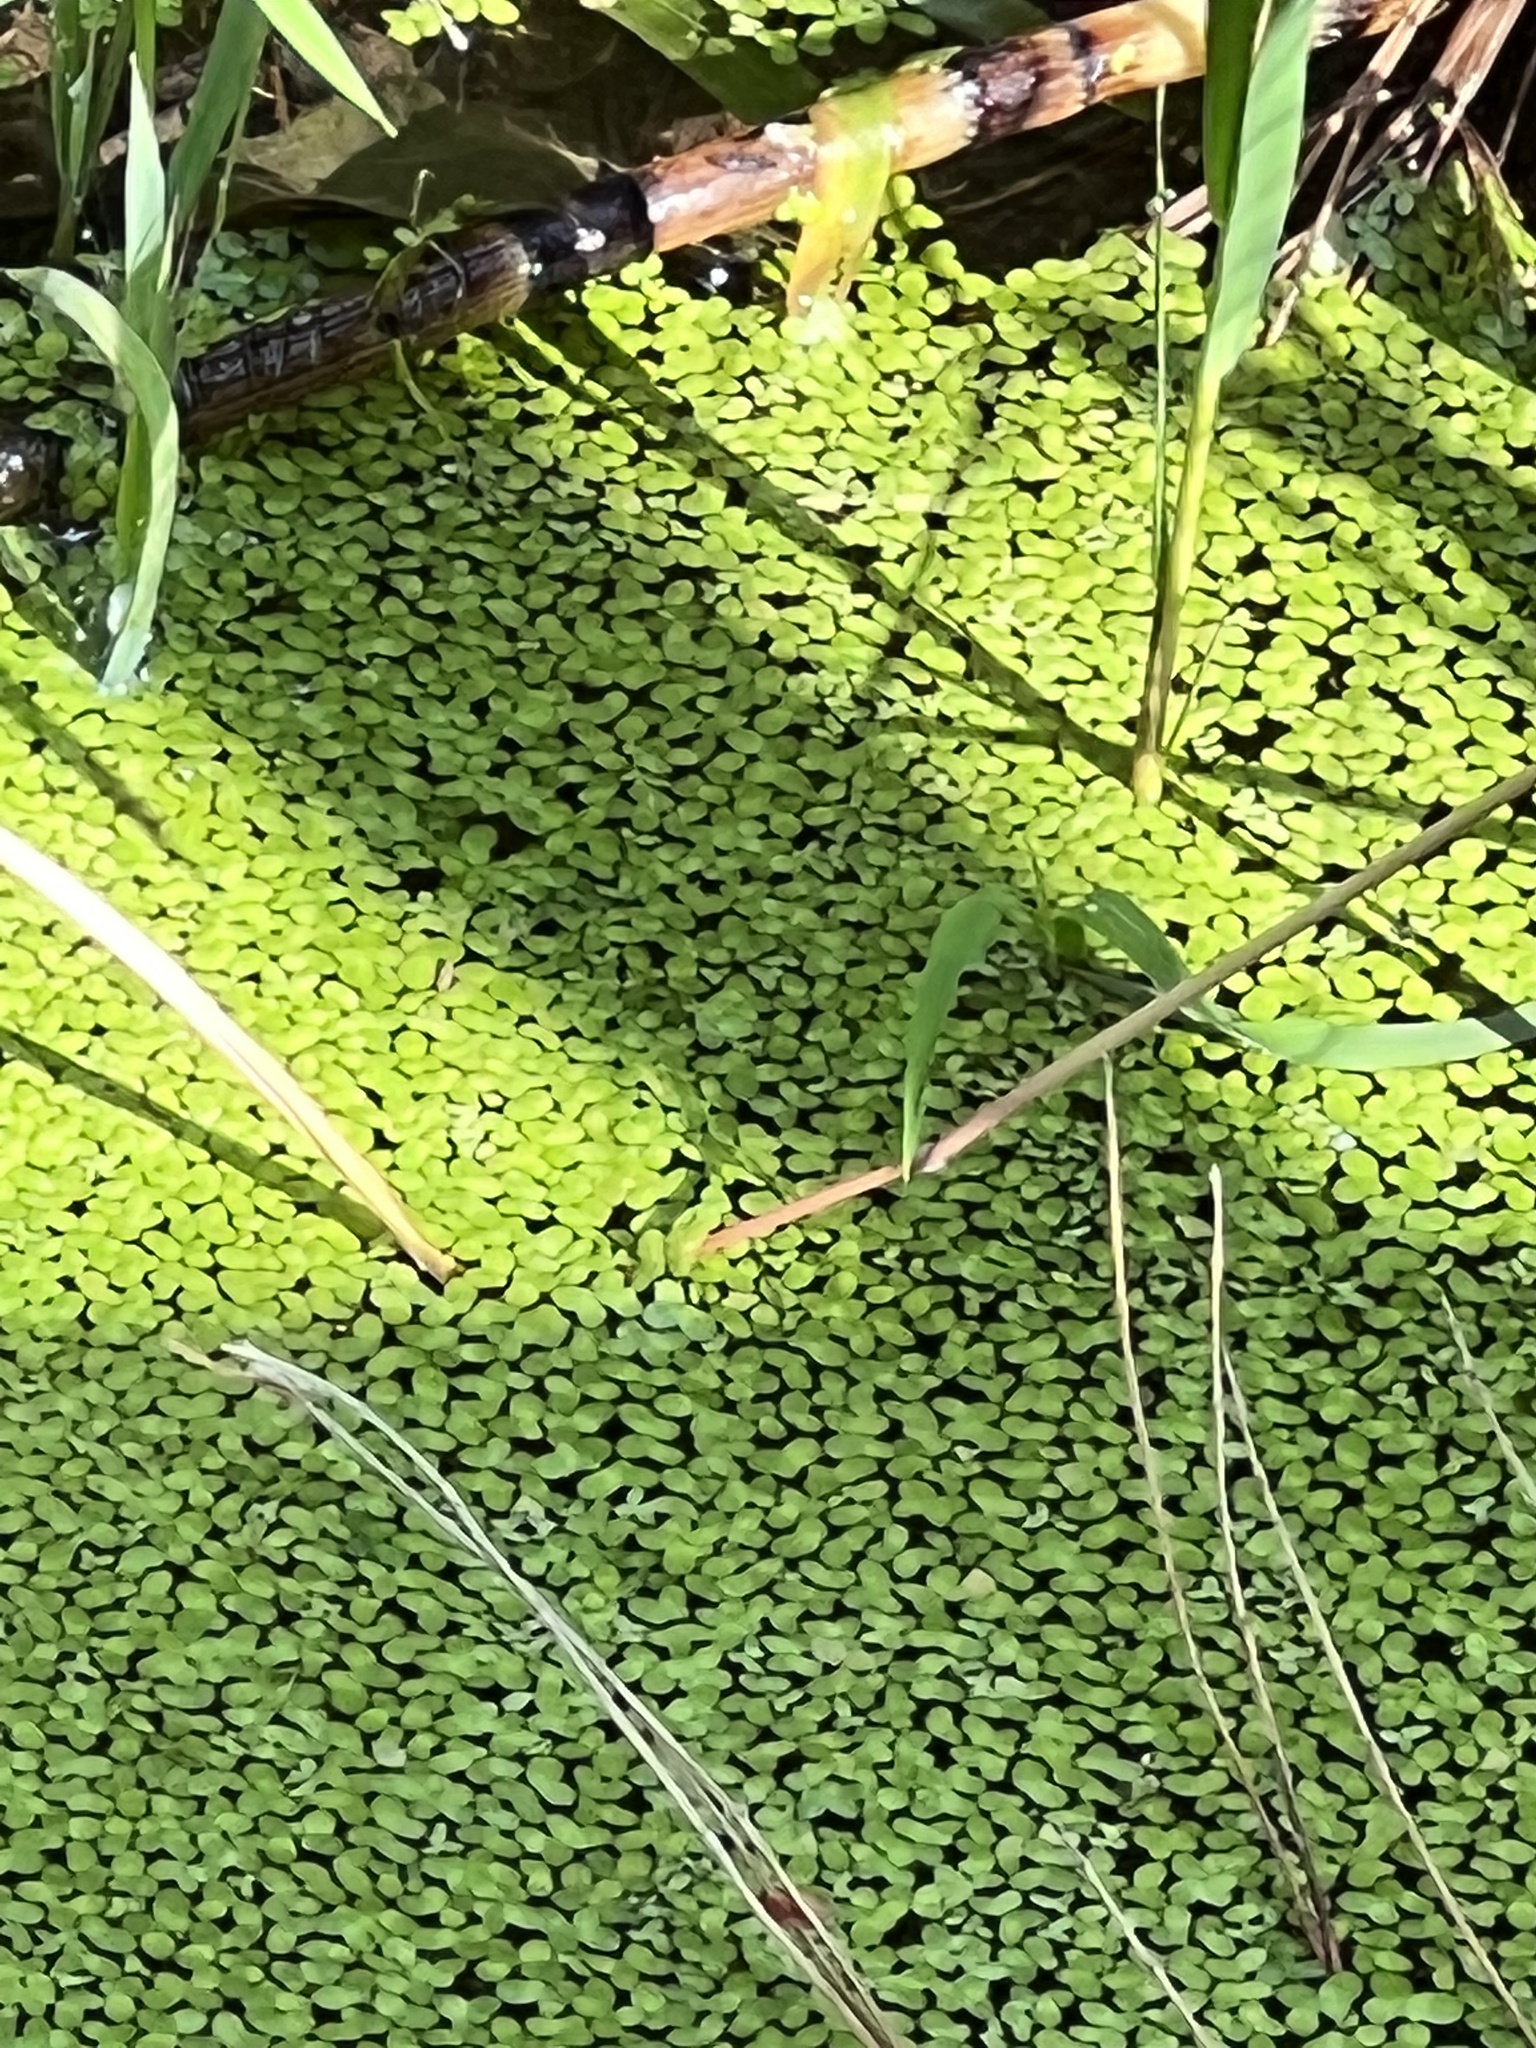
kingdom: Plantae
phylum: Tracheophyta
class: Liliopsida
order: Alismatales
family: Araceae
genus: Lemna
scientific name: Lemna minor
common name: Common duckweed
